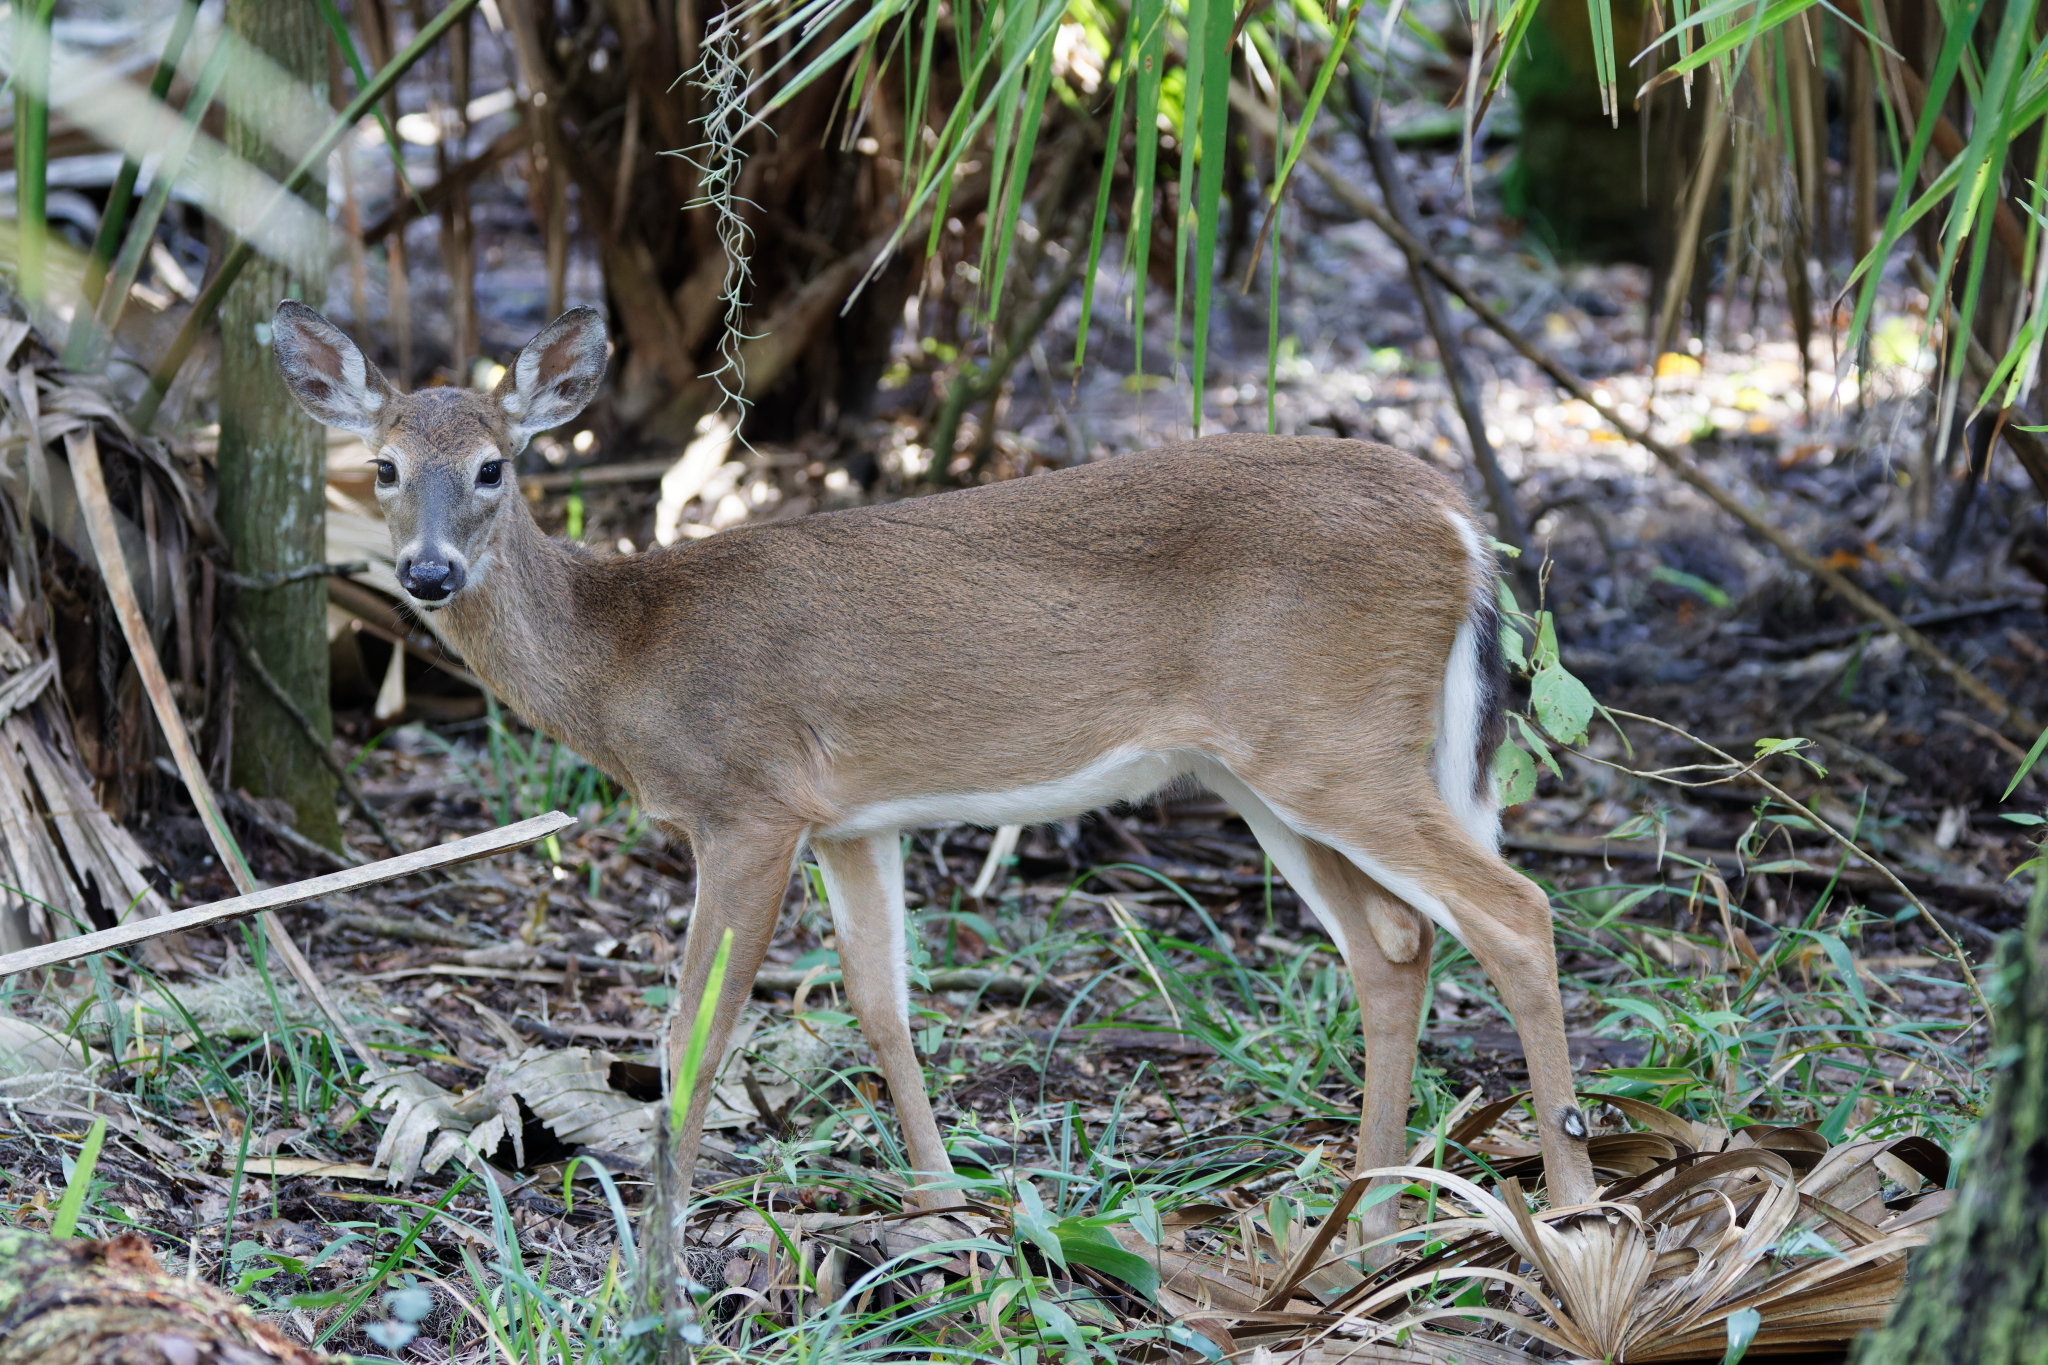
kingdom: Animalia
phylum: Chordata
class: Mammalia
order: Artiodactyla
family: Cervidae
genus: Odocoileus
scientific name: Odocoileus virginianus
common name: White-tailed deer
